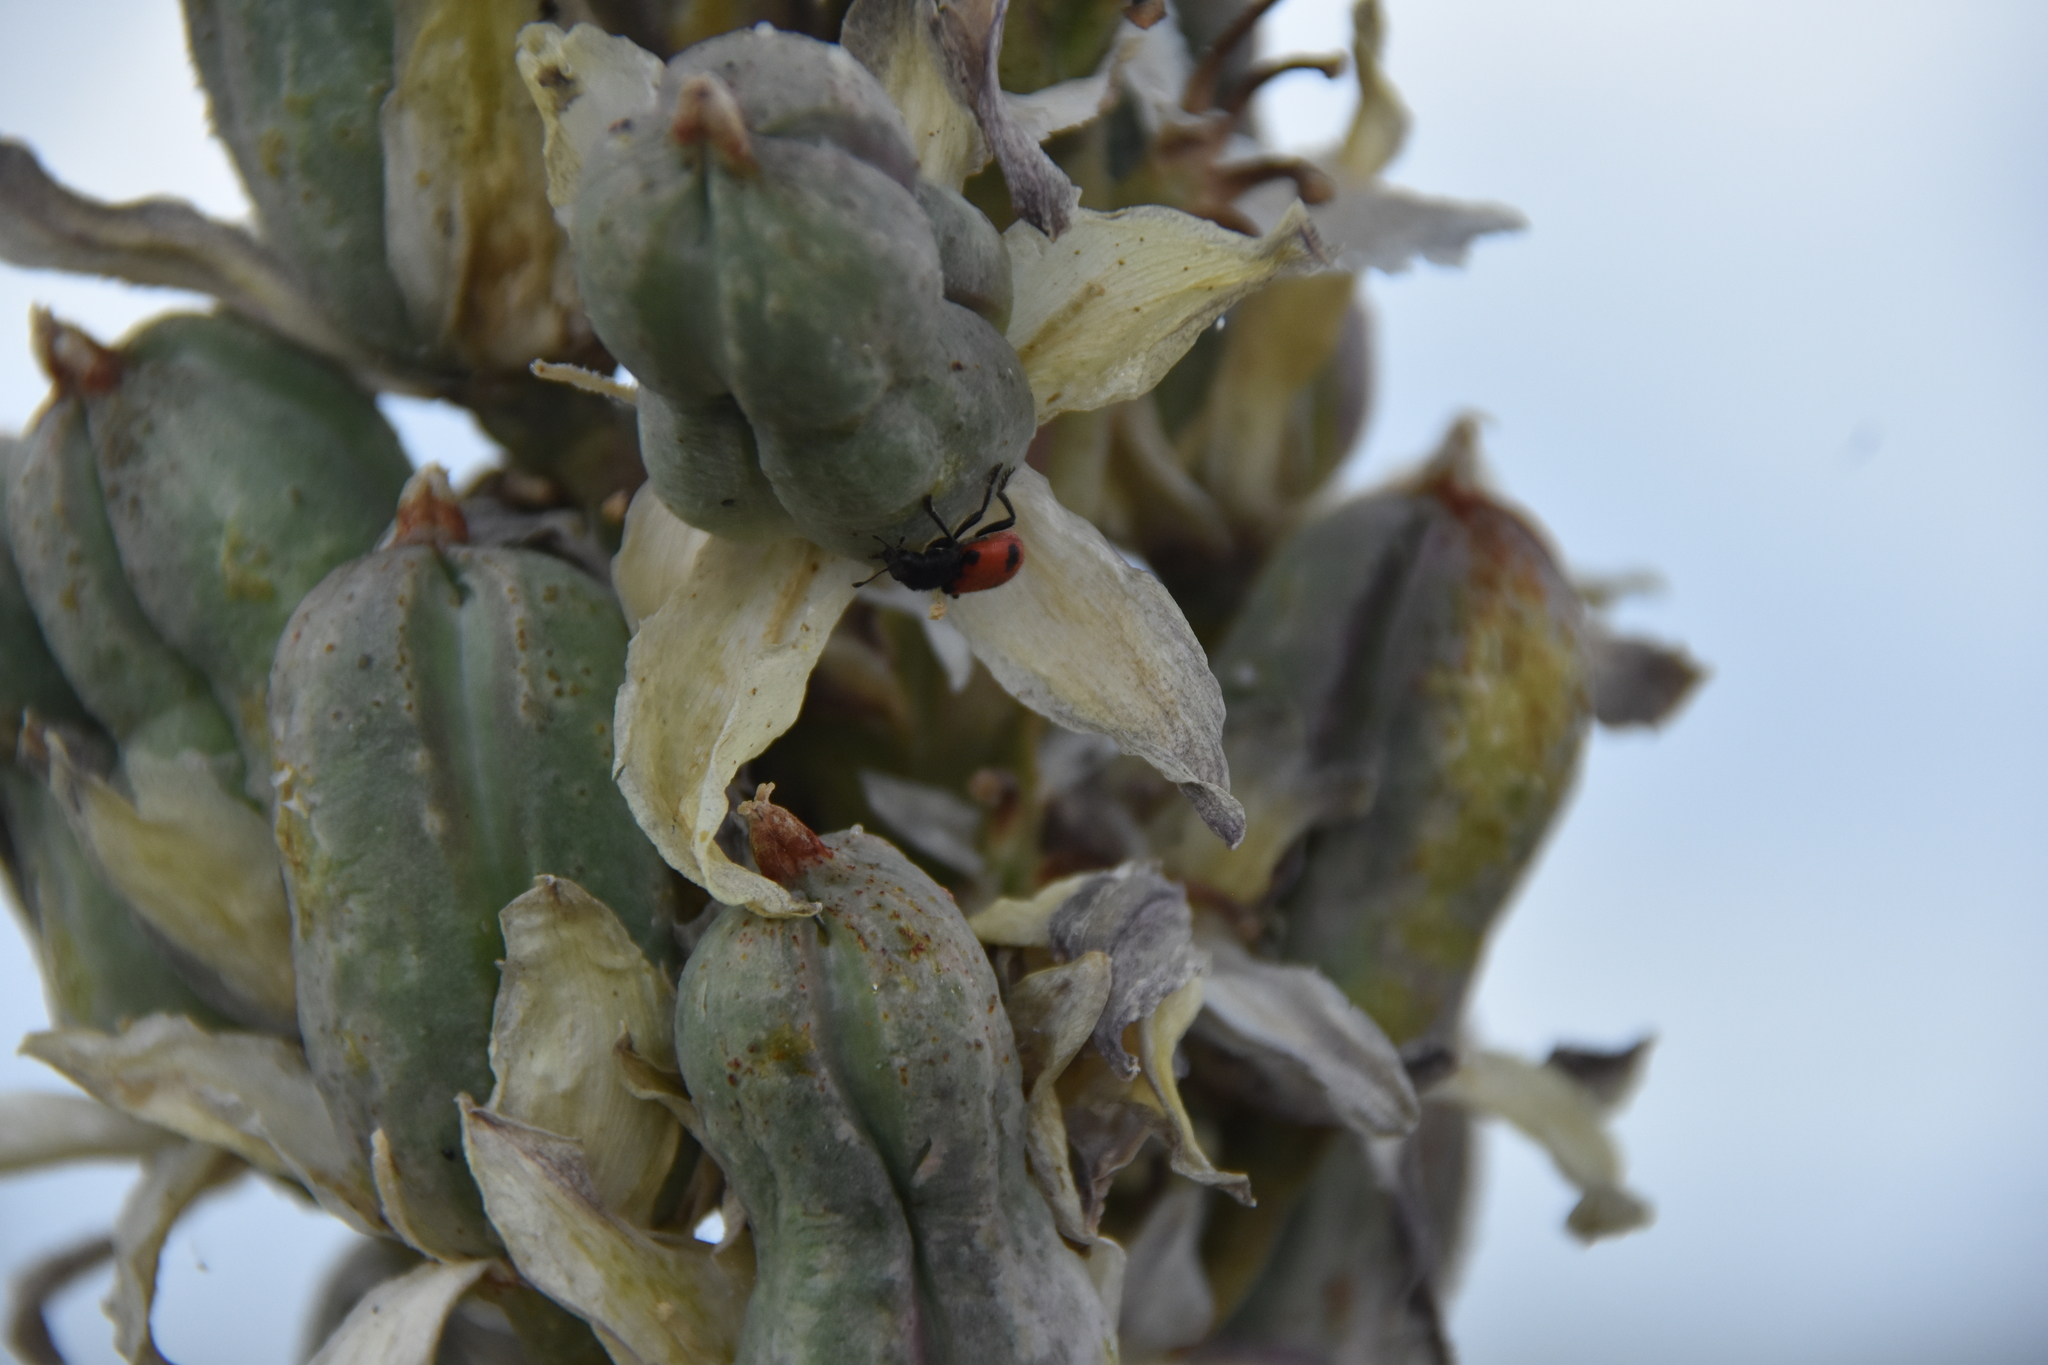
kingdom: Animalia
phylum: Arthropoda
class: Insecta
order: Coleoptera
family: Cleridae
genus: Enoclerus
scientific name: Enoclerus
